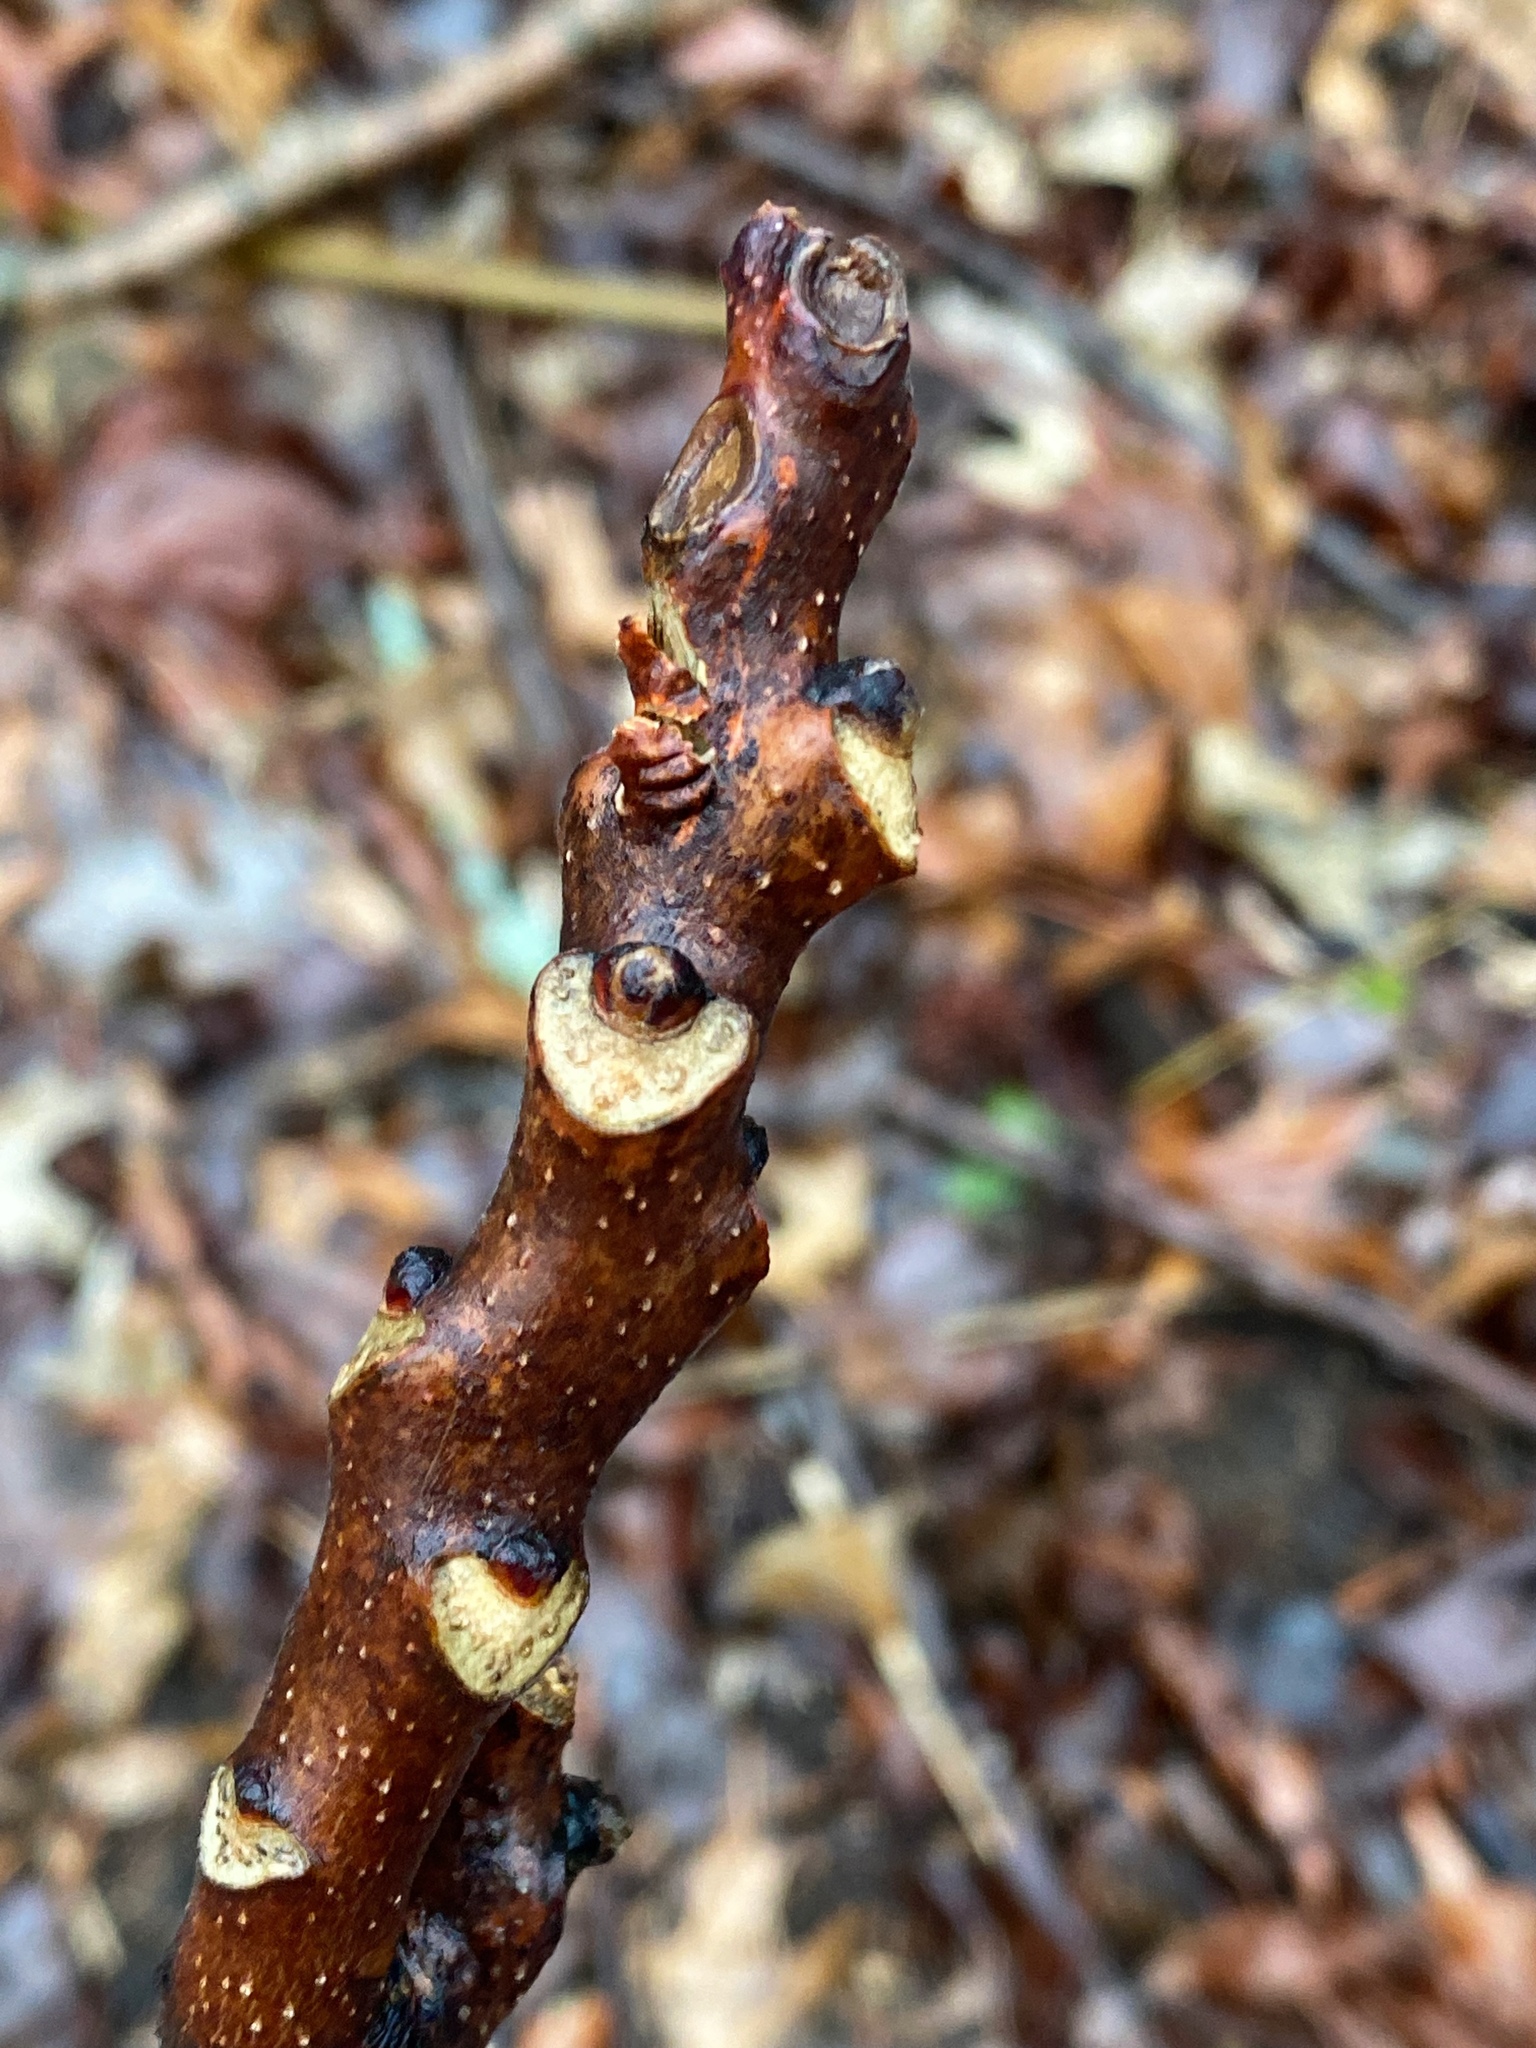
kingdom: Plantae
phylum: Tracheophyta
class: Magnoliopsida
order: Fagales
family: Juglandaceae
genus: Juglans
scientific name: Juglans nigra
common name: Black walnut
